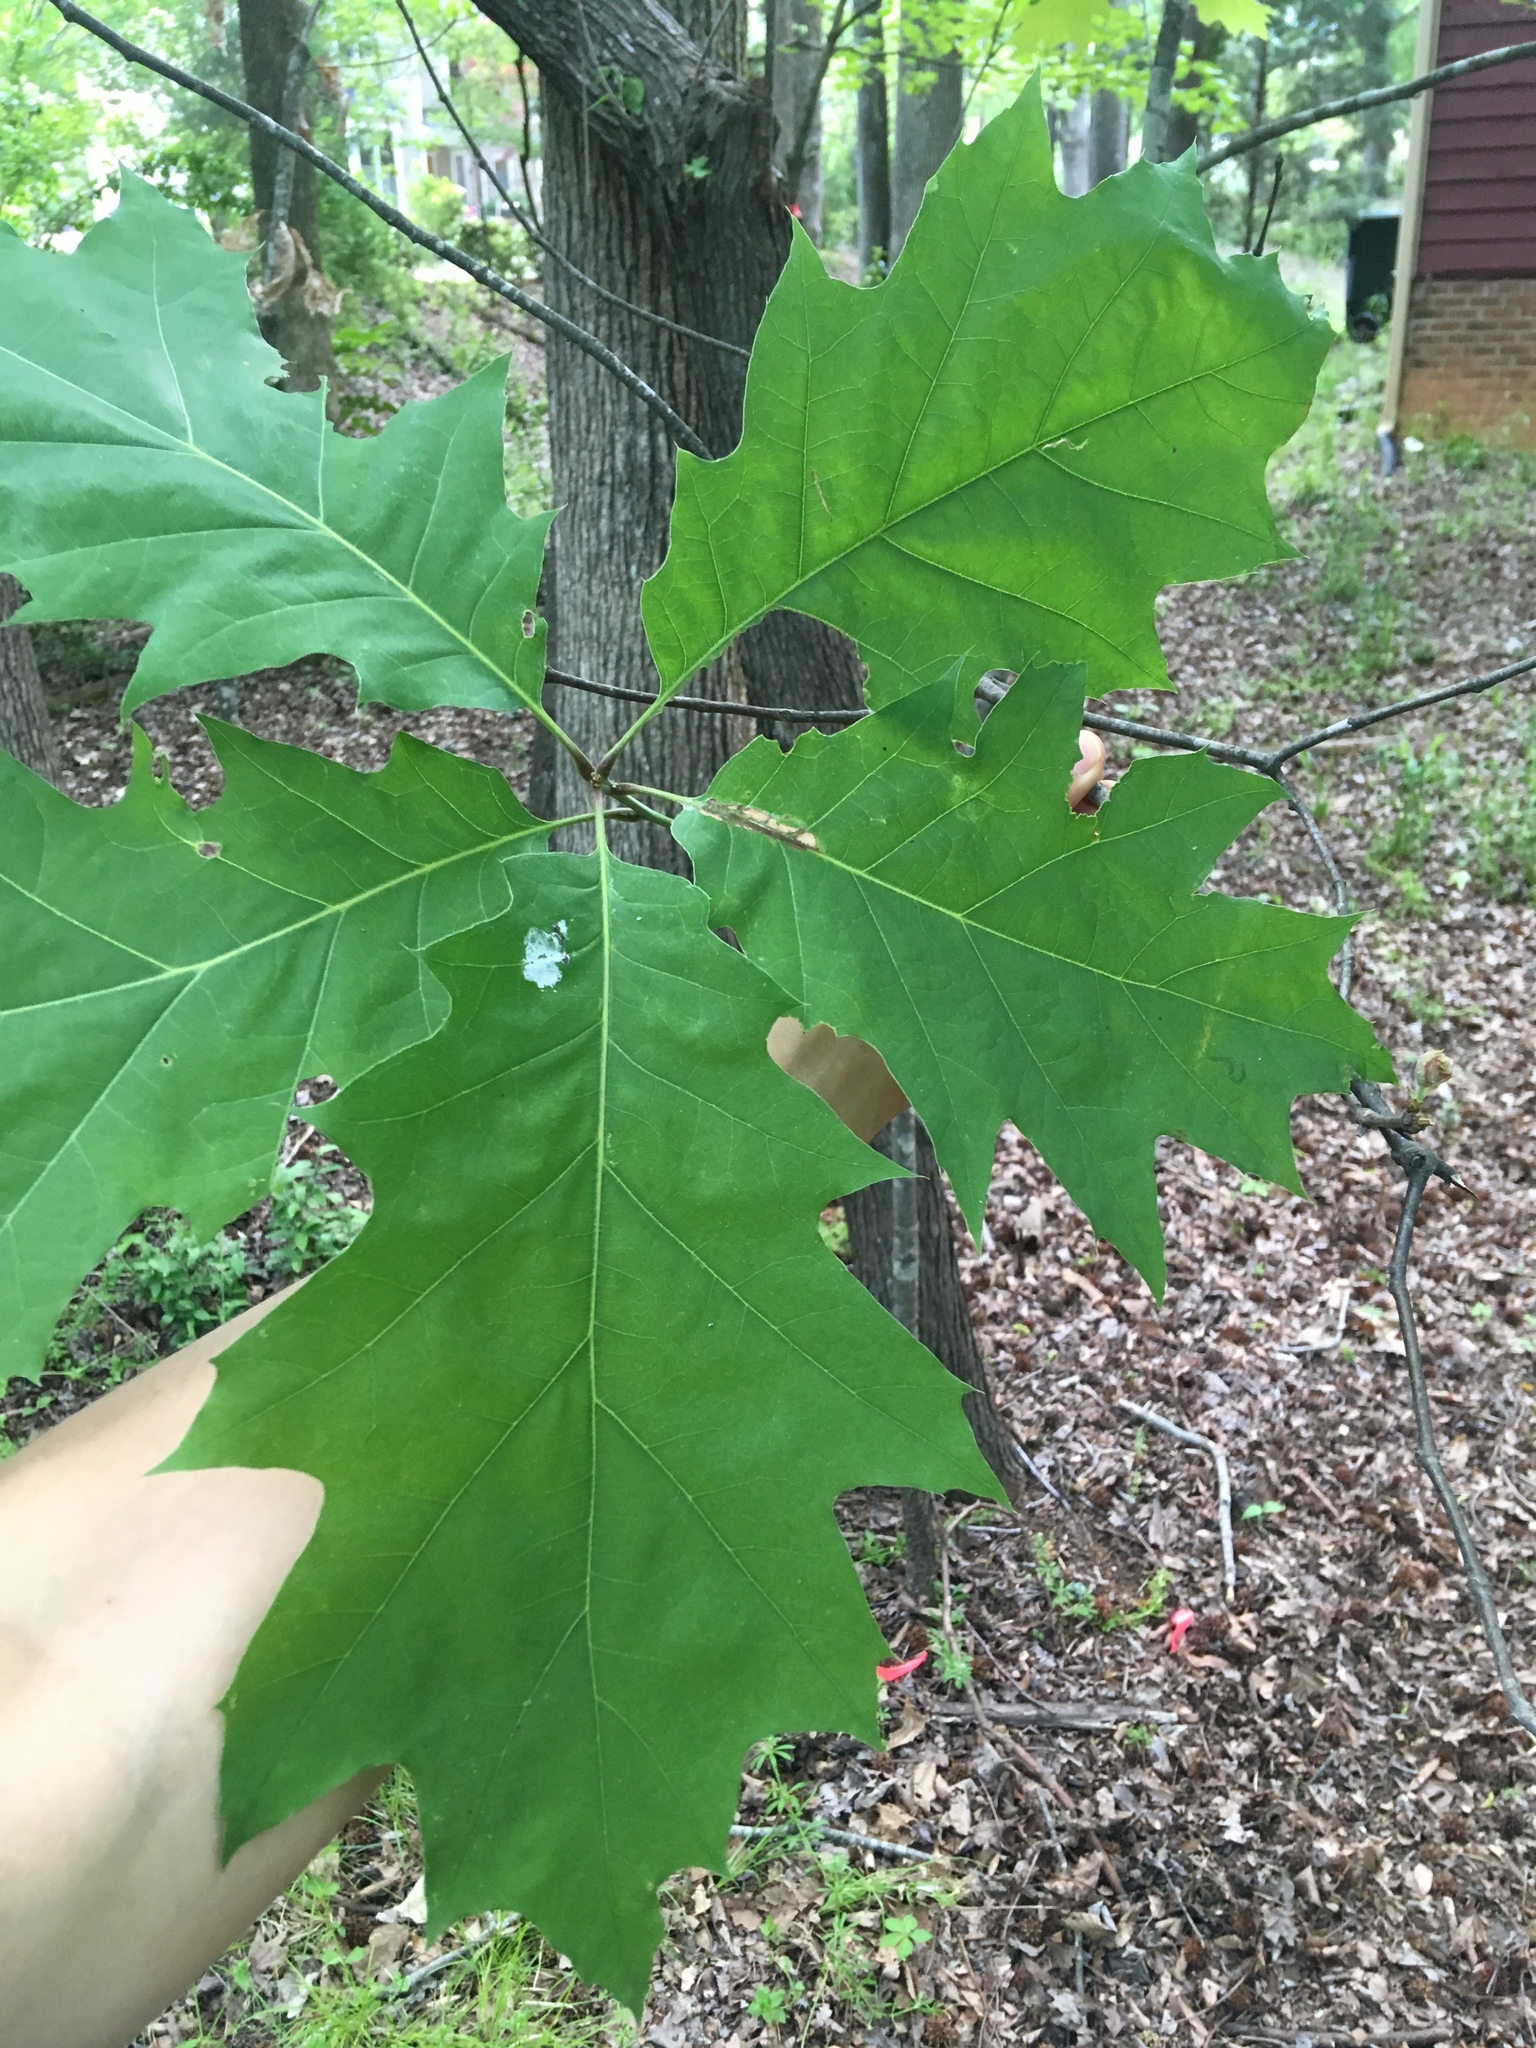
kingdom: Plantae
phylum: Tracheophyta
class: Magnoliopsida
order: Fagales
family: Fagaceae
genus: Quercus
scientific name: Quercus rubra
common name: Red oak
